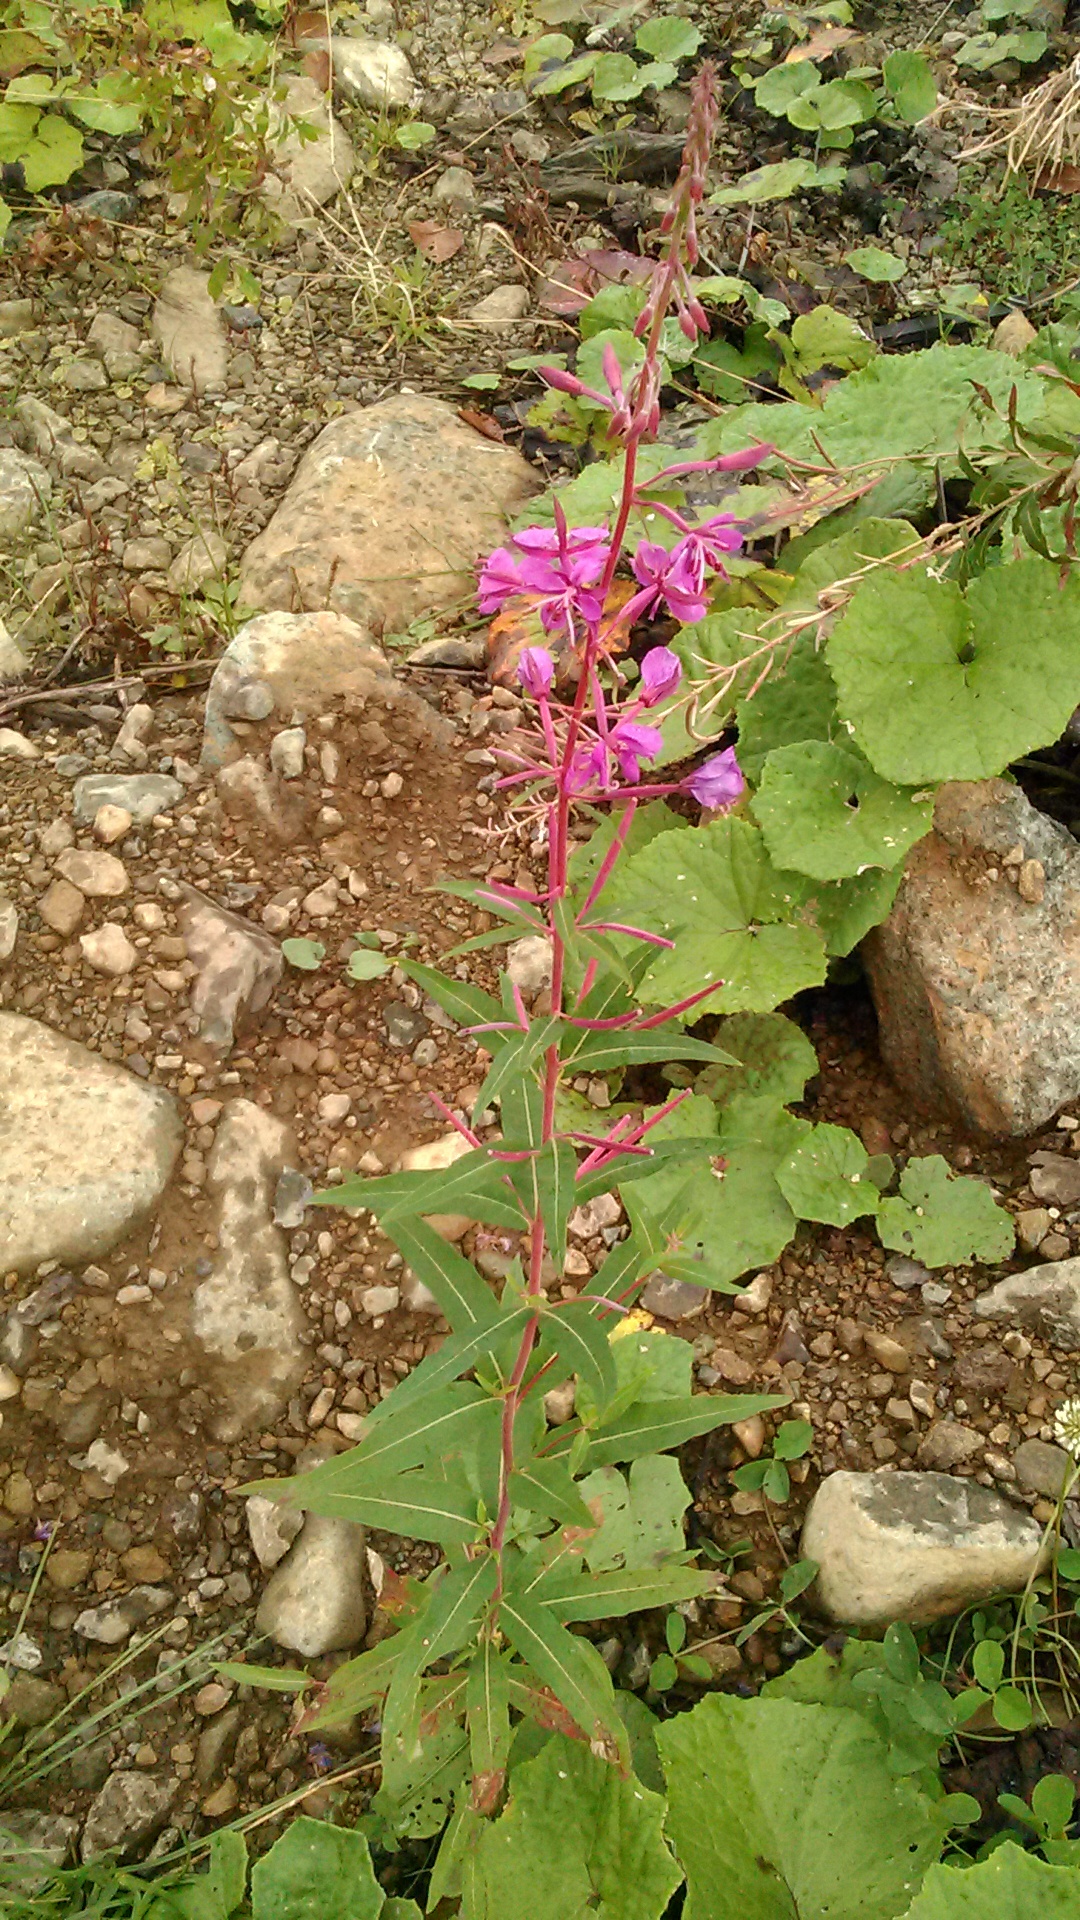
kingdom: Plantae
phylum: Tracheophyta
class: Magnoliopsida
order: Myrtales
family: Onagraceae
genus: Chamaenerion
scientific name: Chamaenerion angustifolium
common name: Fireweed
